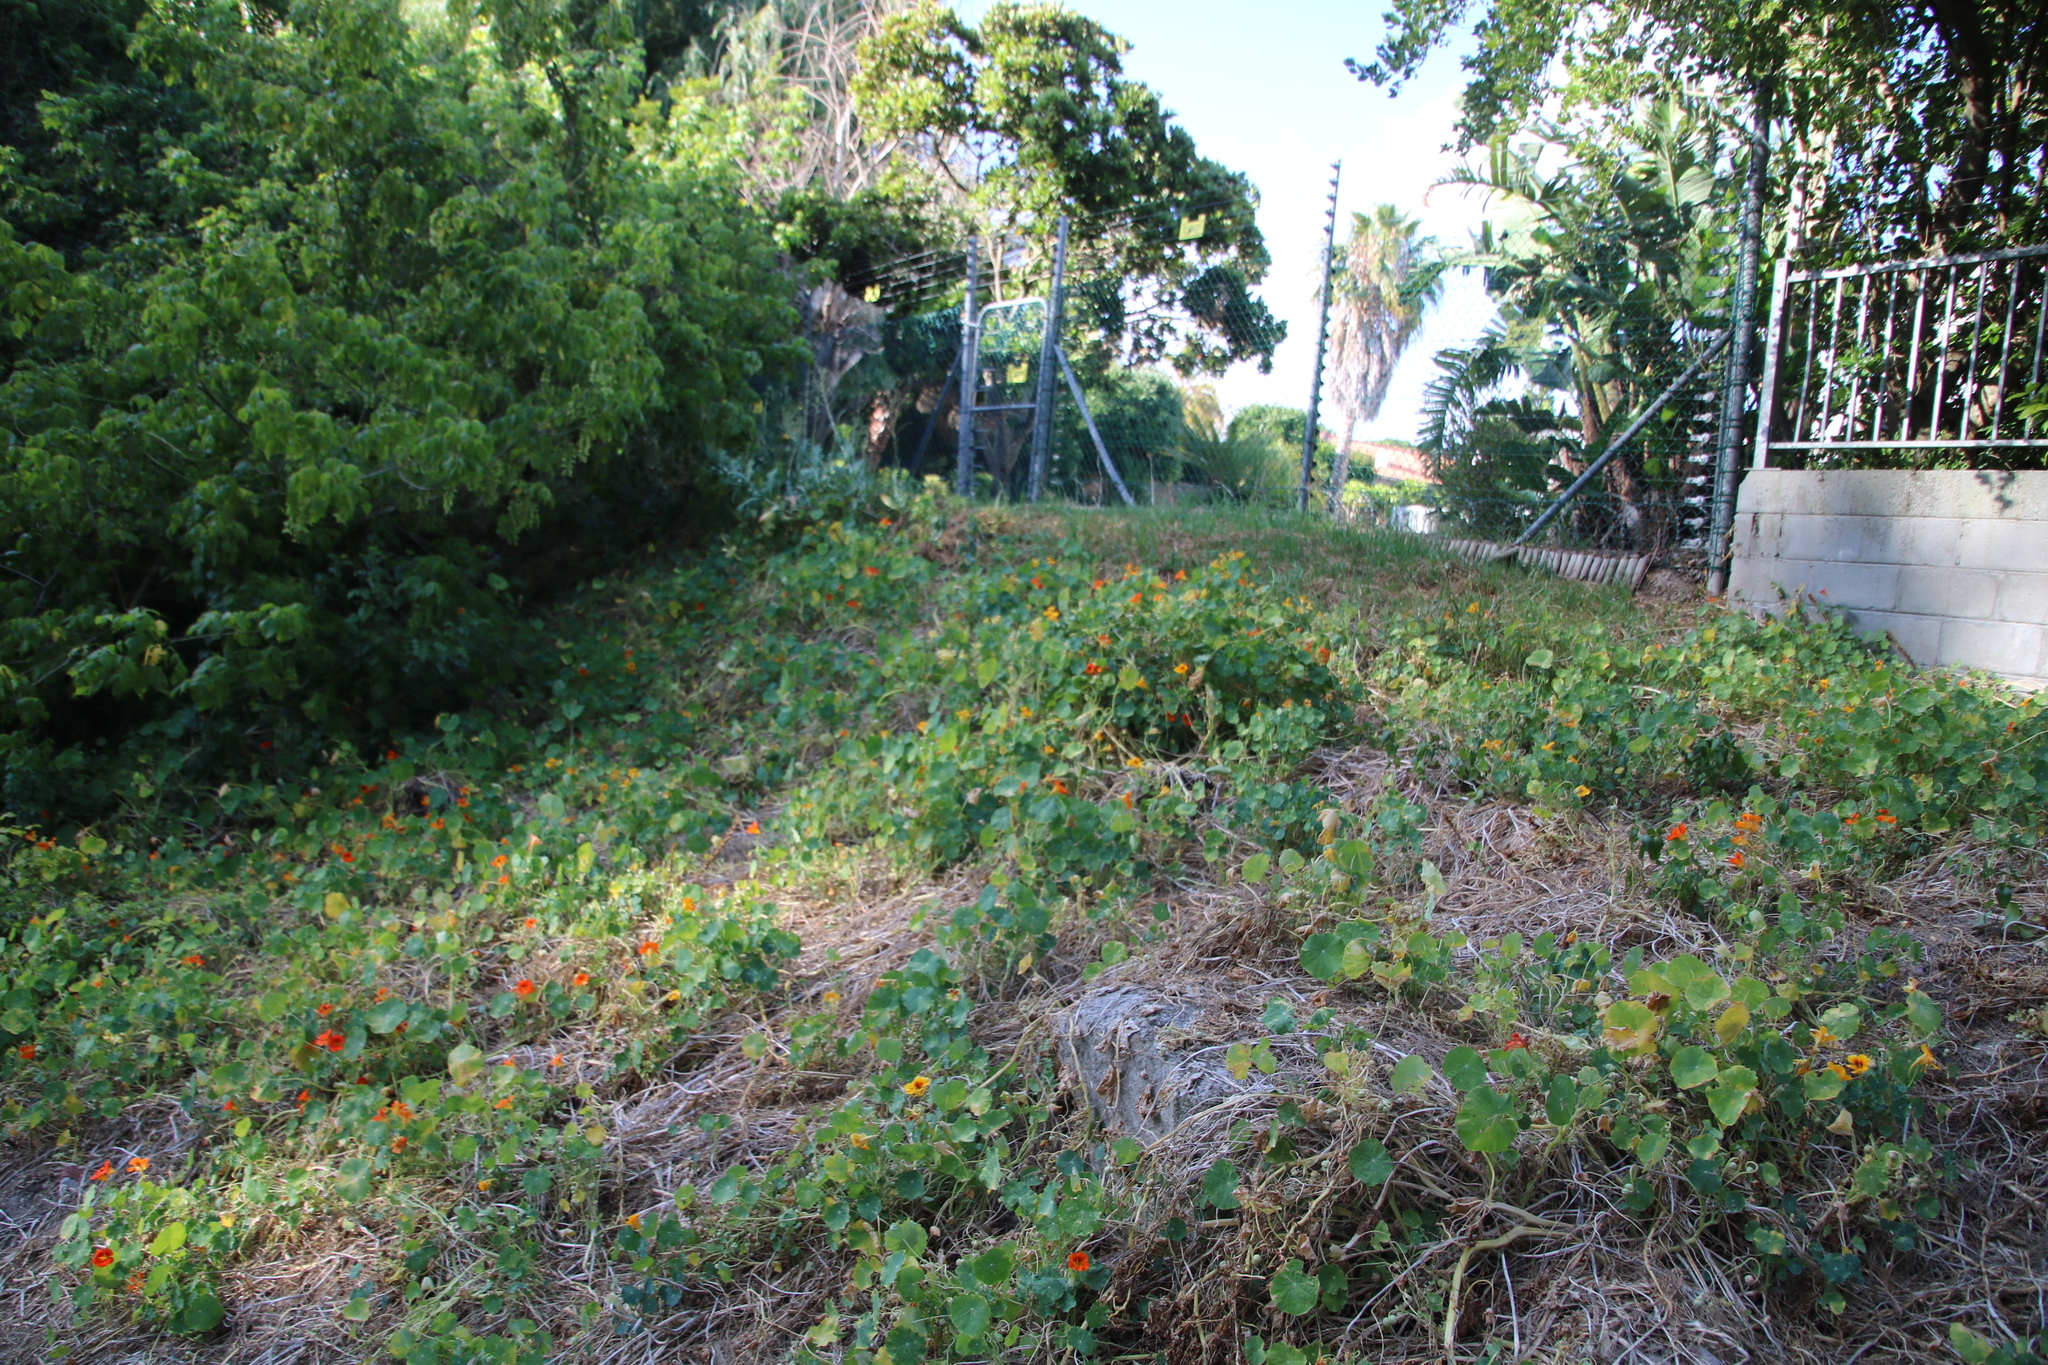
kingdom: Plantae
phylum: Tracheophyta
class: Magnoliopsida
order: Brassicales
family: Tropaeolaceae
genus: Tropaeolum
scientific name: Tropaeolum majus
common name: Nasturtium
